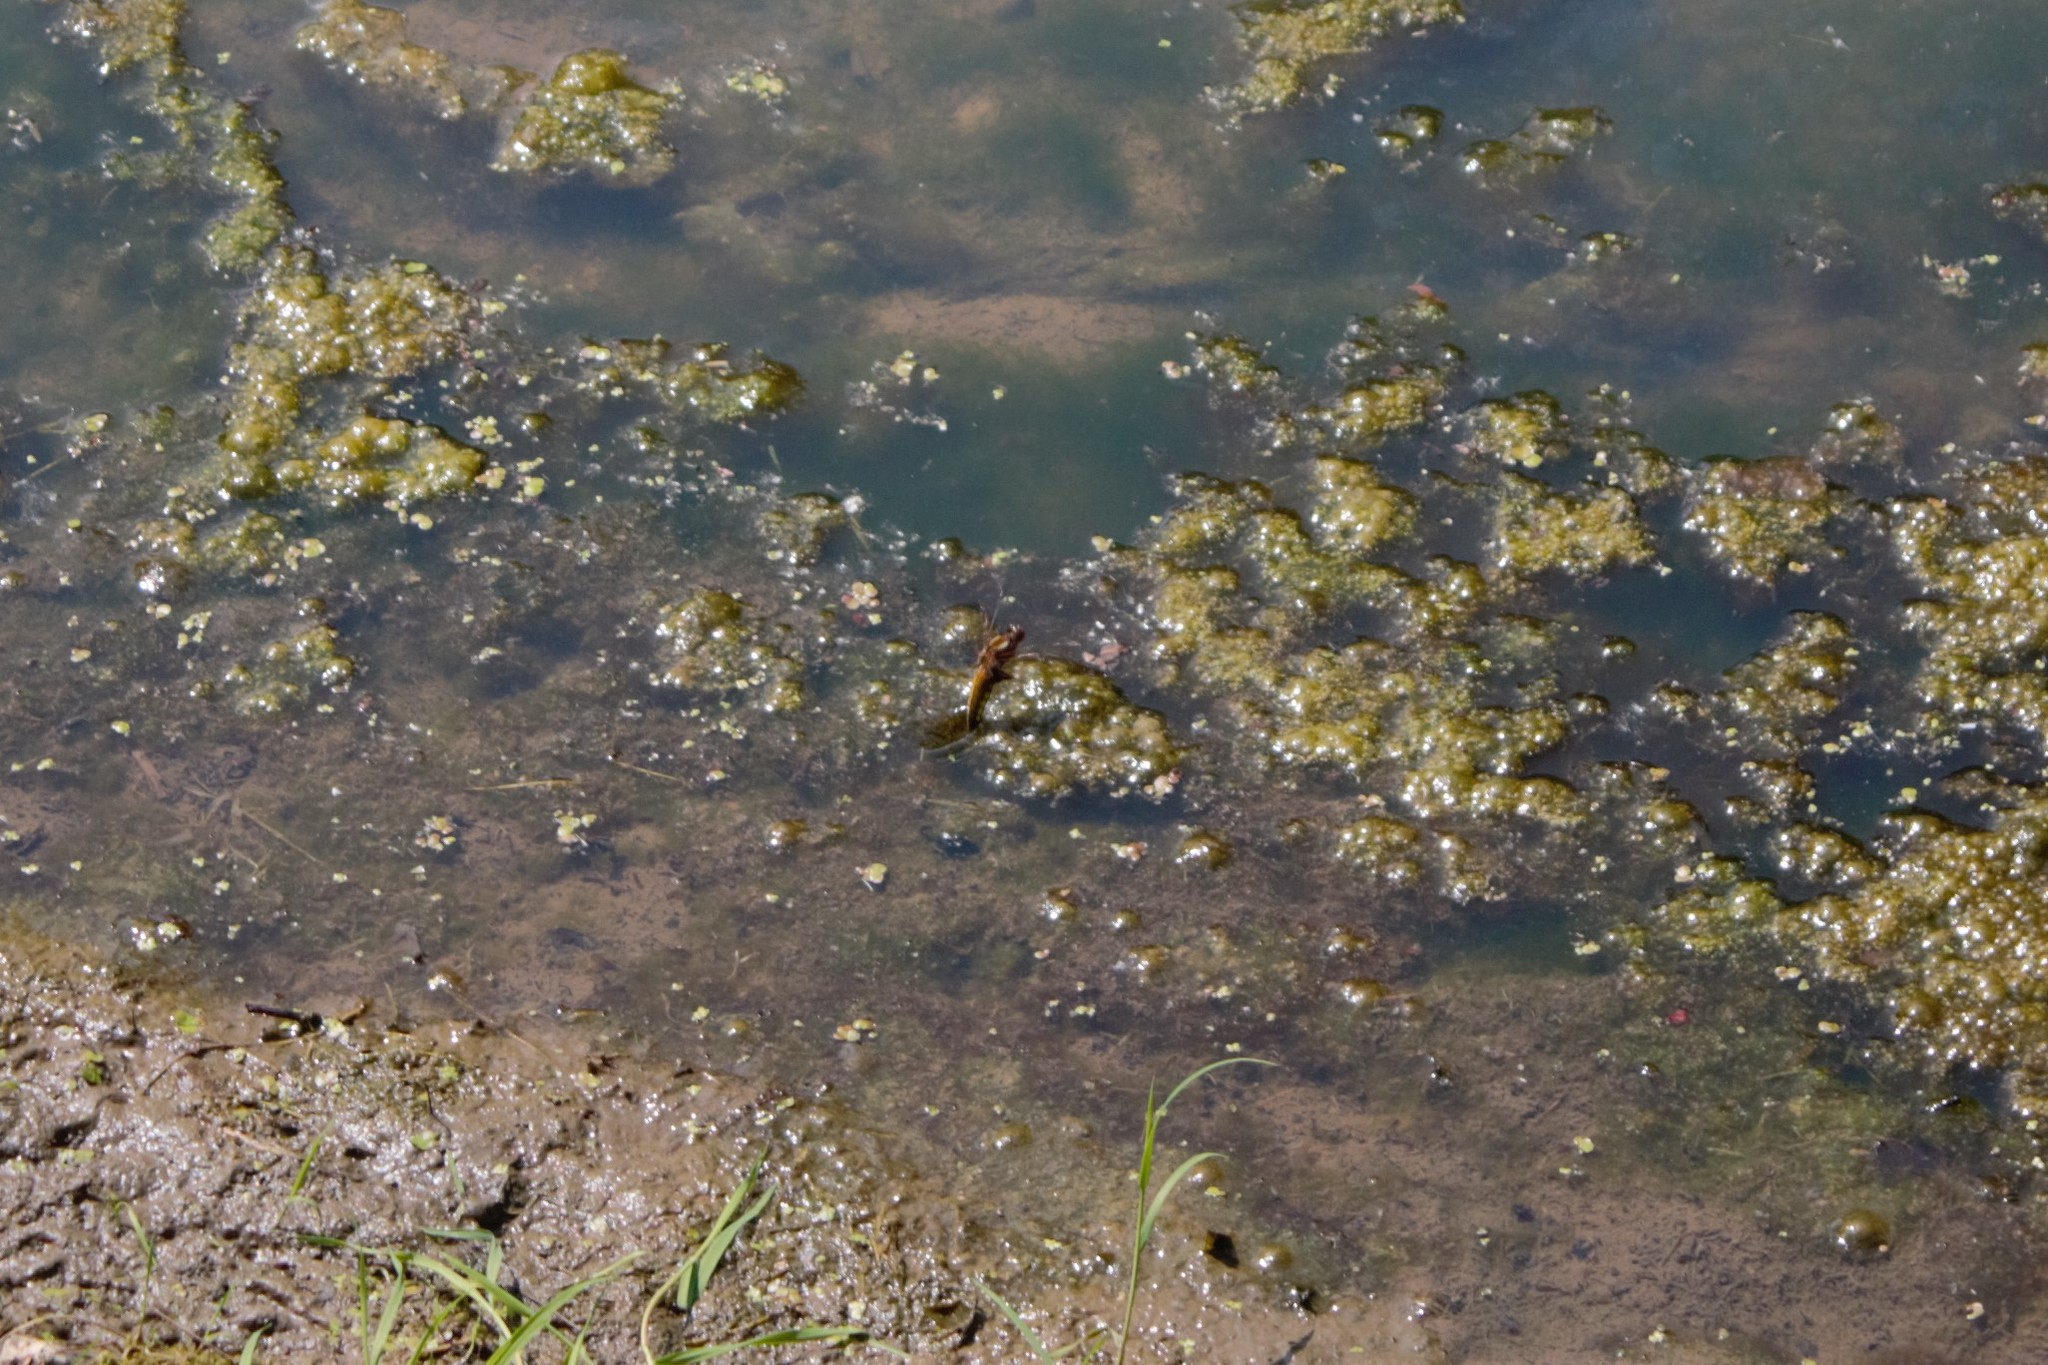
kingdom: Animalia
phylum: Arthropoda
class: Insecta
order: Odonata
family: Libellulidae
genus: Libellula
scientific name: Libellula depressa
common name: Broad-bodied chaser
